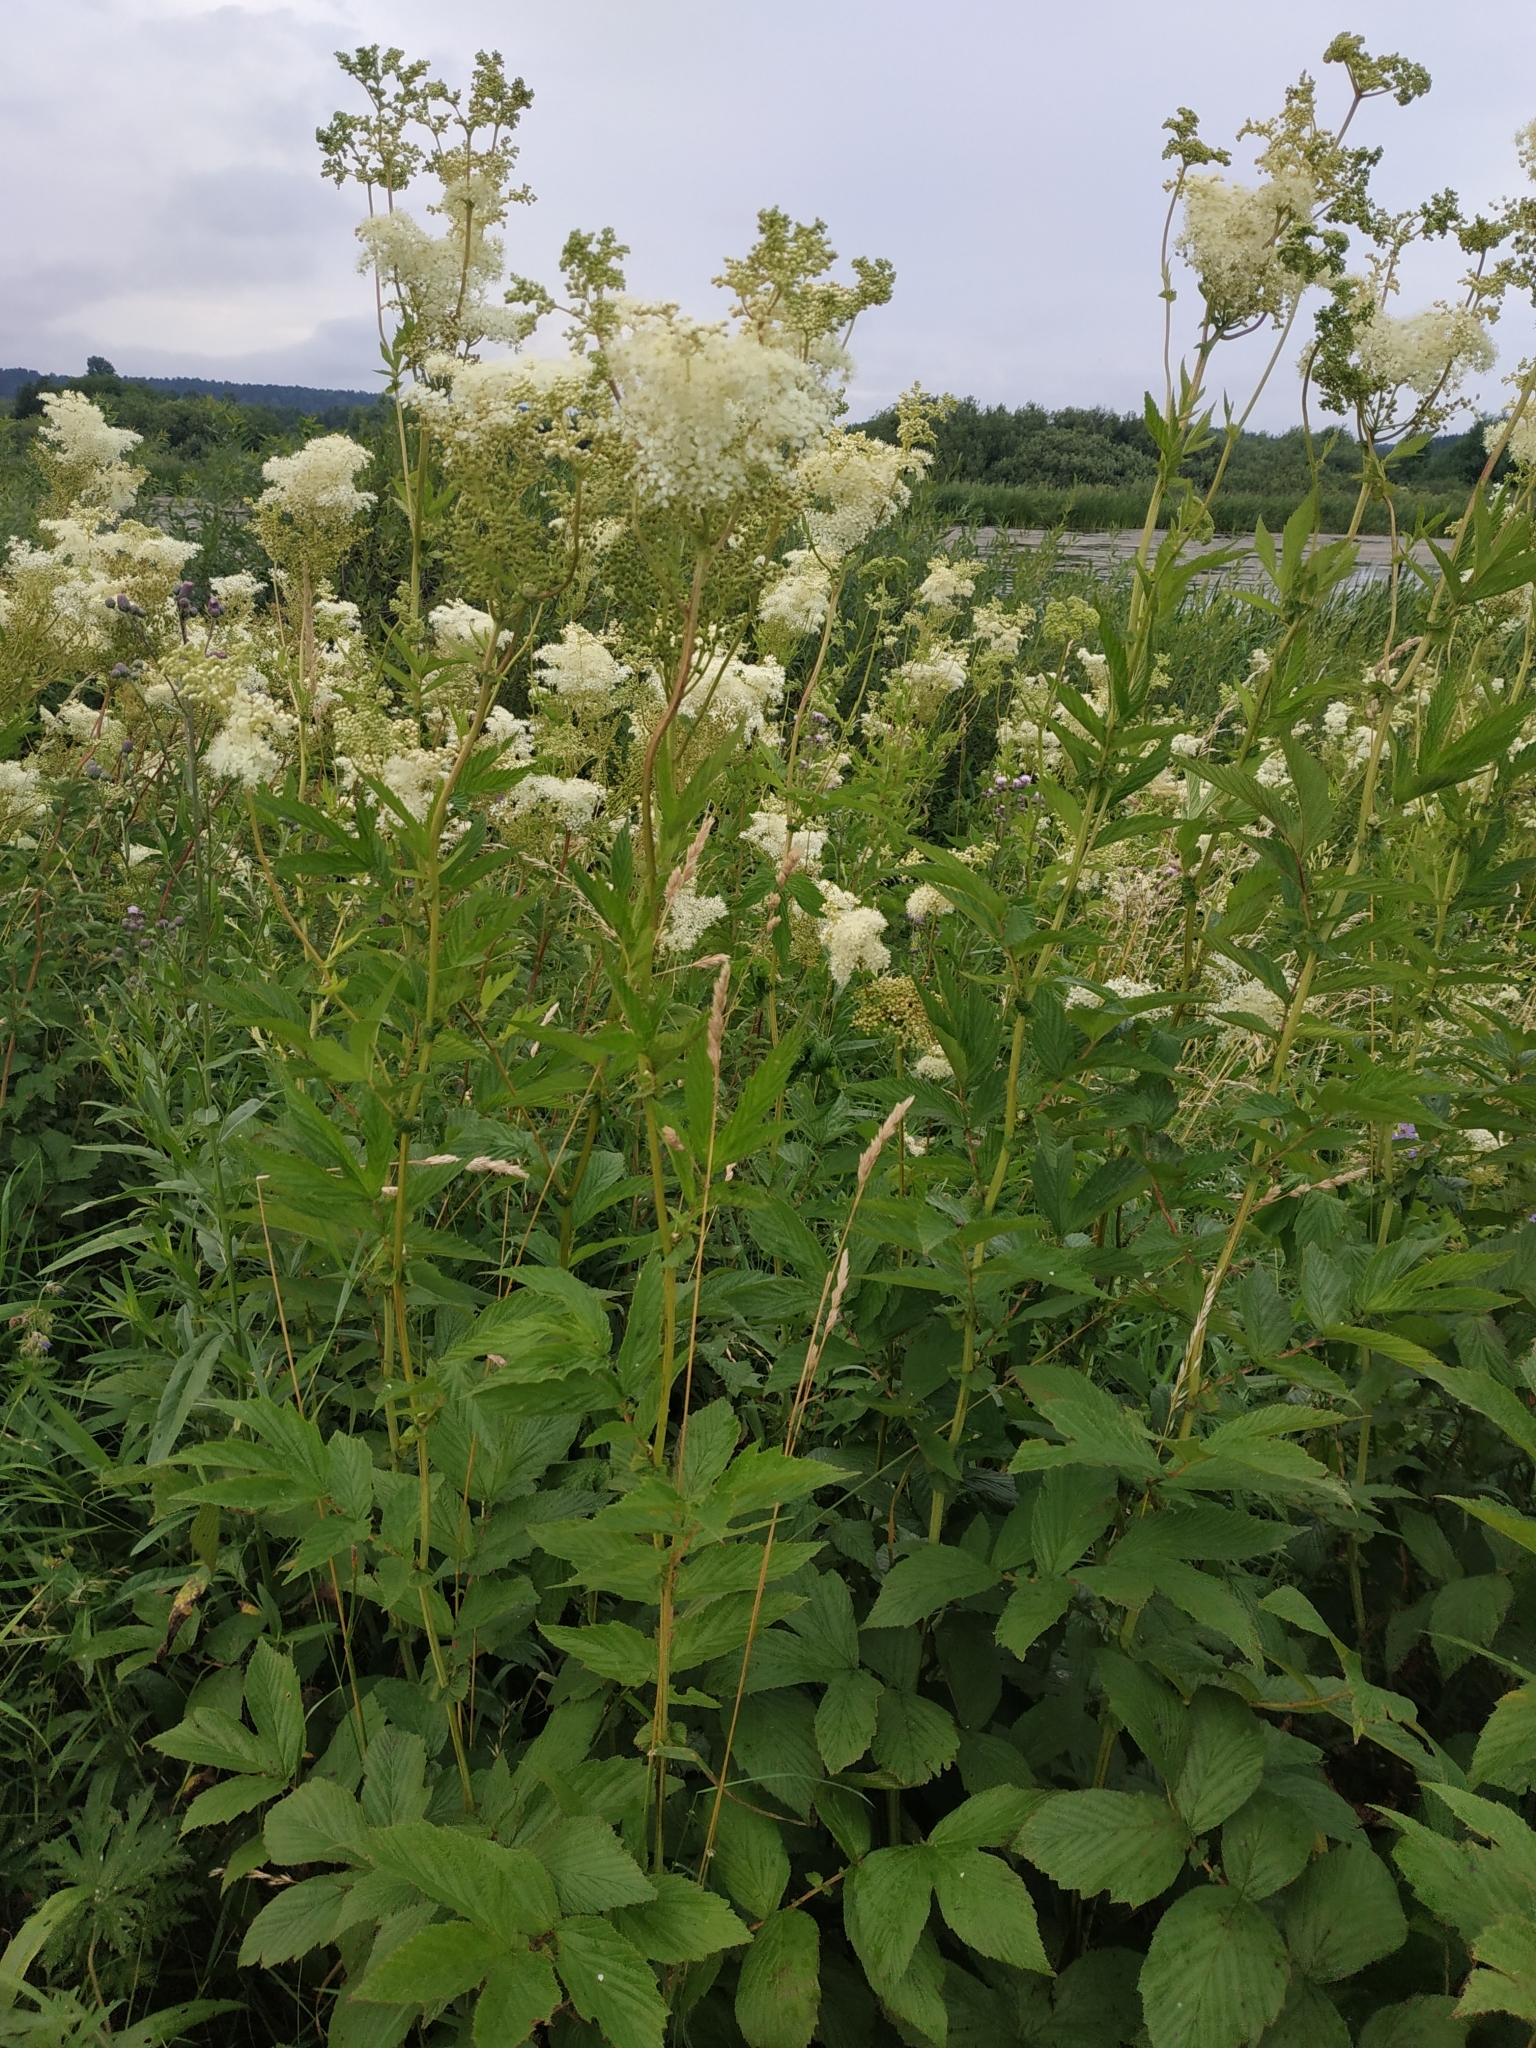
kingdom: Plantae
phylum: Tracheophyta
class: Magnoliopsida
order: Rosales
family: Rosaceae
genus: Filipendula
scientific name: Filipendula ulmaria
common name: Meadowsweet
